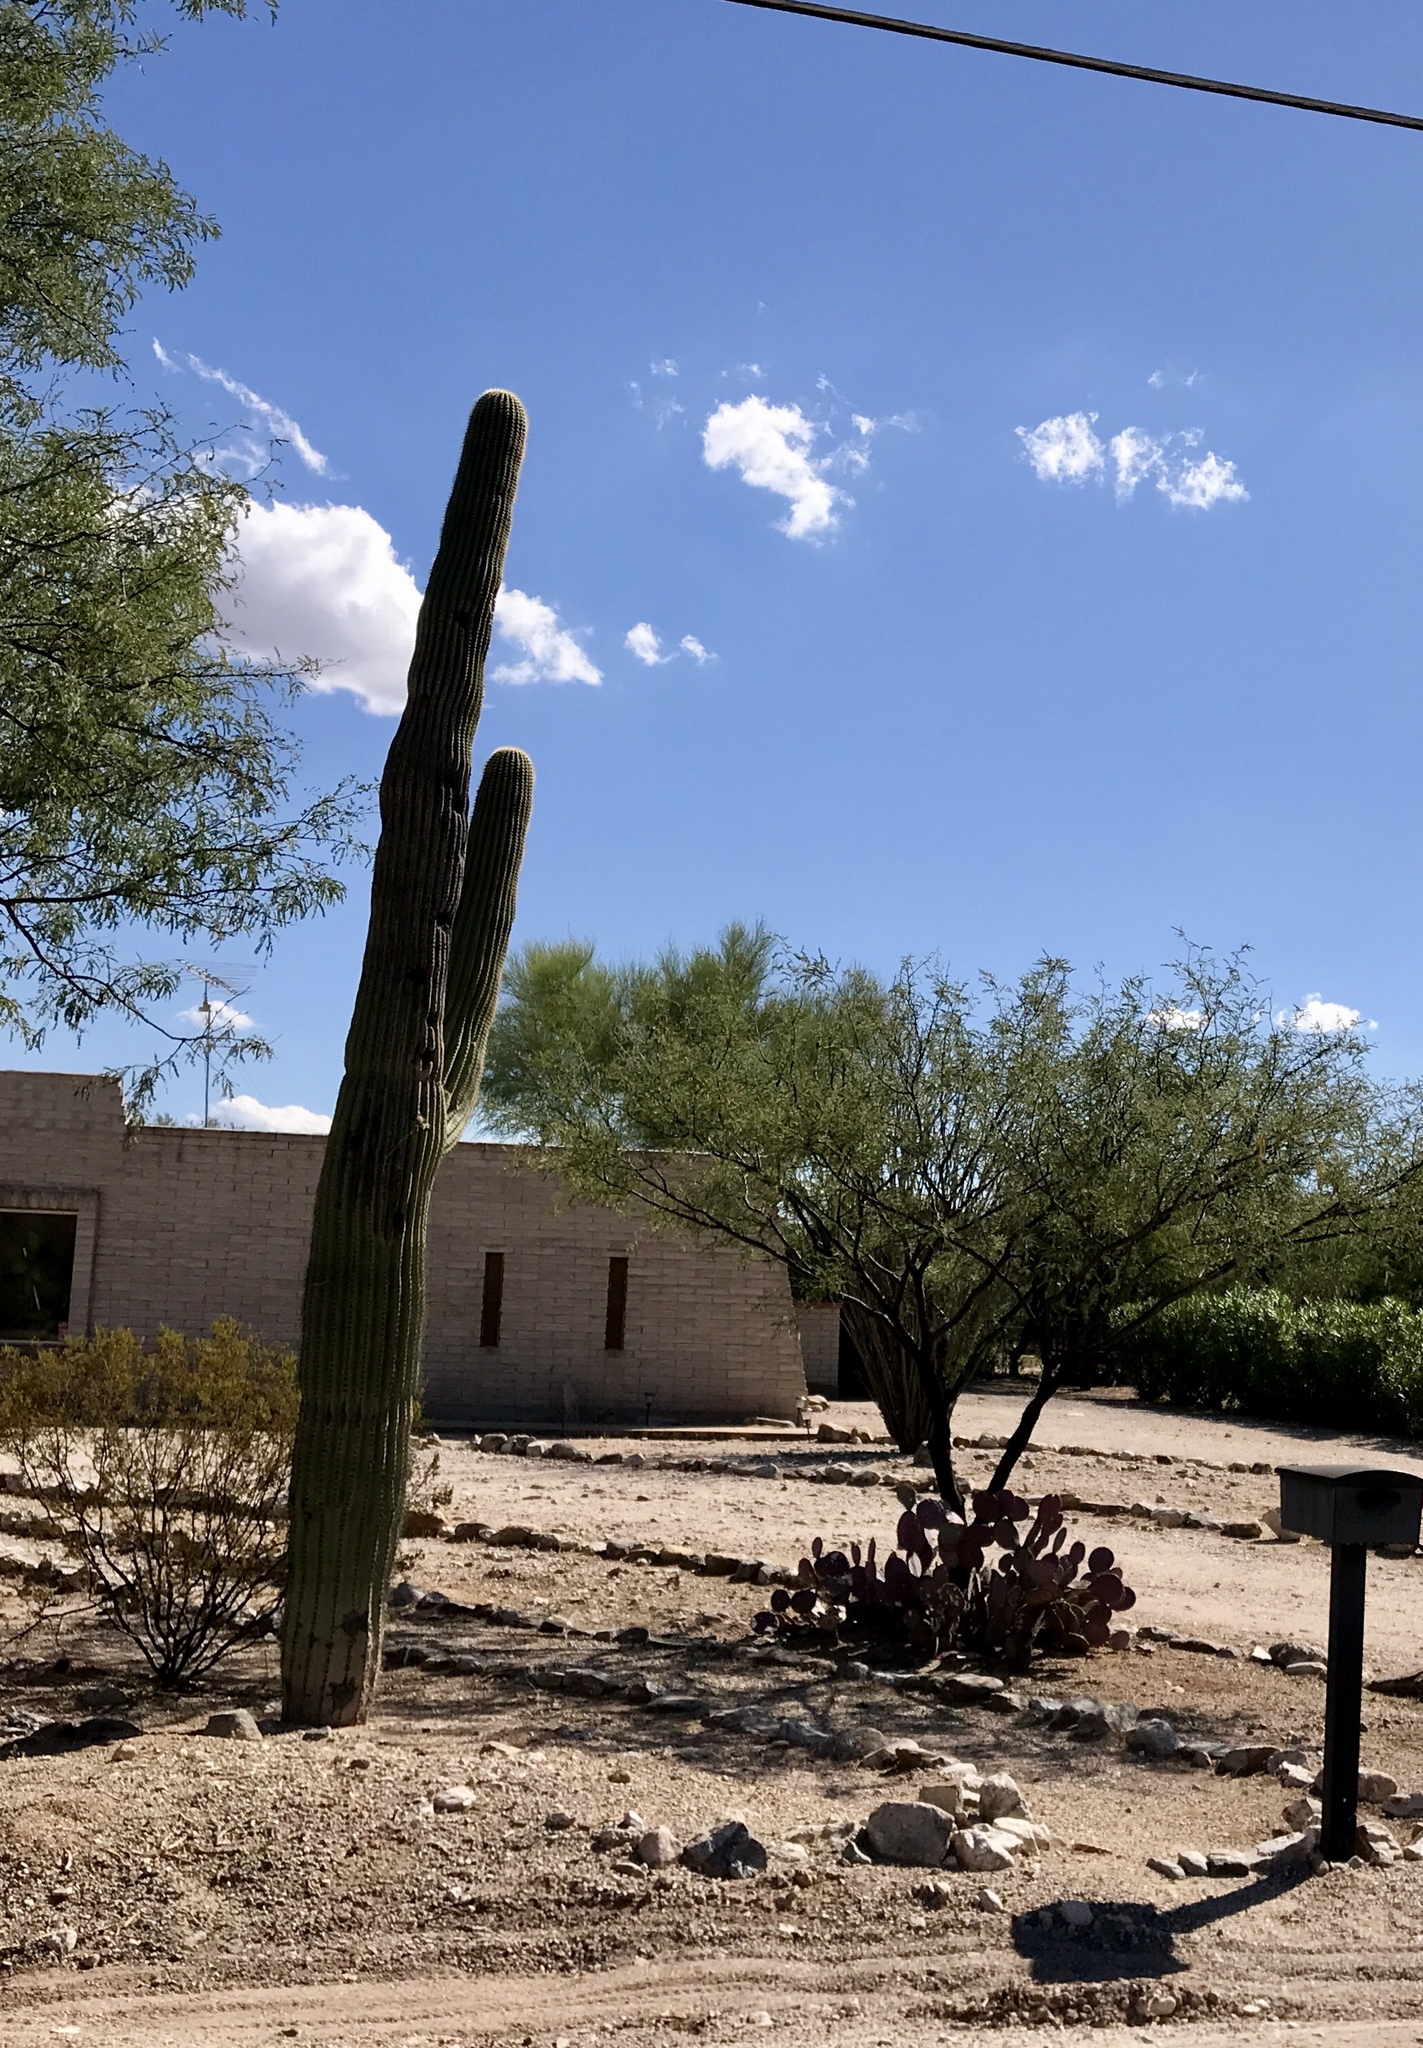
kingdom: Plantae
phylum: Tracheophyta
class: Magnoliopsida
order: Caryophyllales
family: Cactaceae
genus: Carnegiea
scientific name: Carnegiea gigantea
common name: Saguaro
